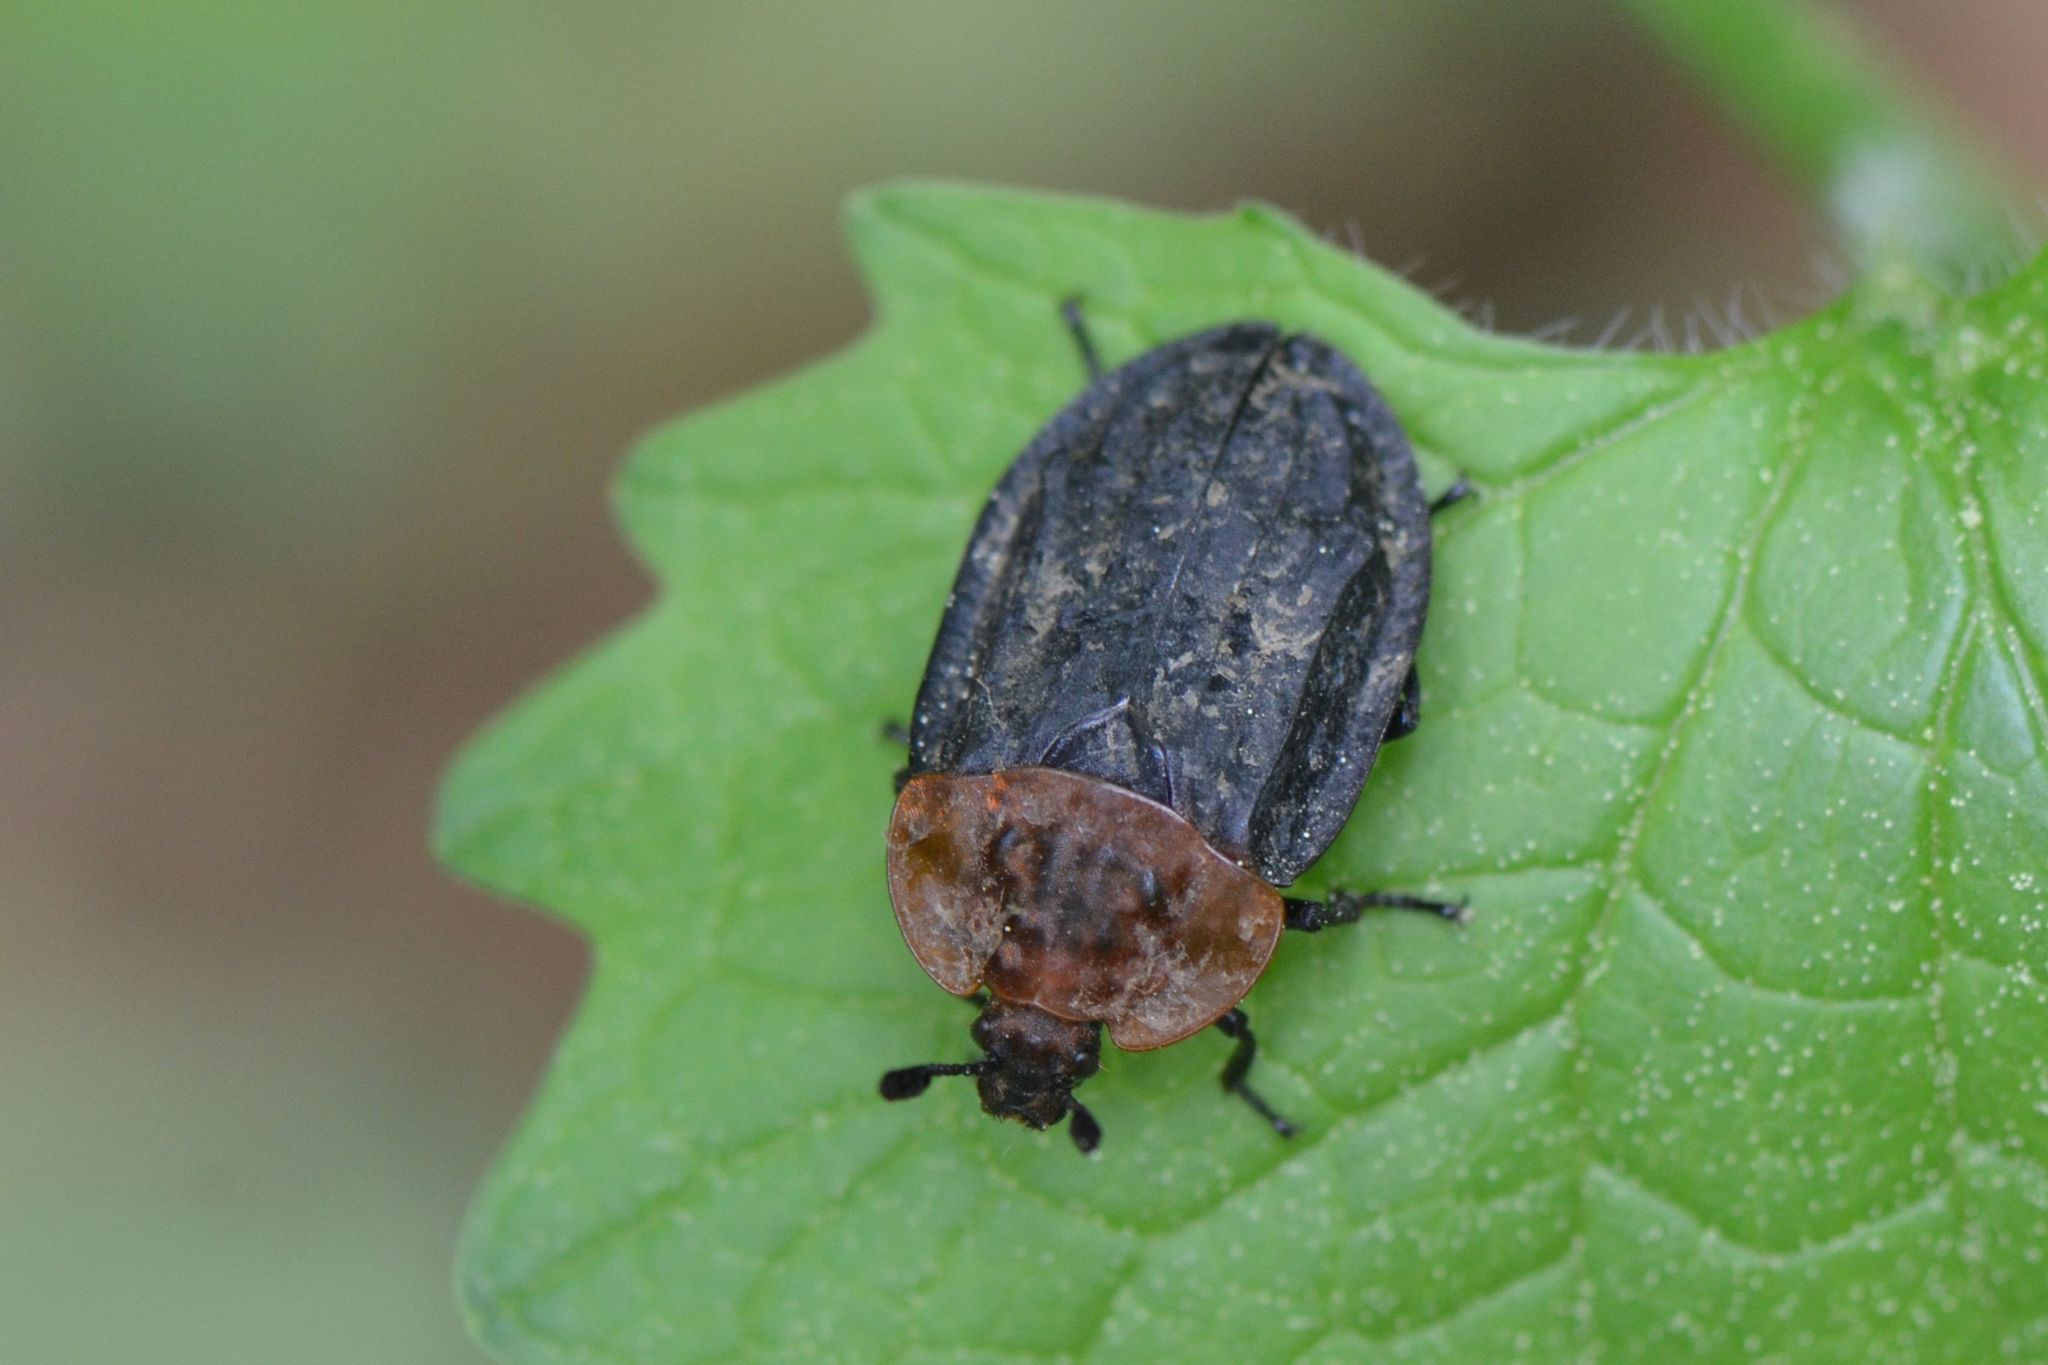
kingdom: Animalia
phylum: Arthropoda
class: Insecta
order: Coleoptera
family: Staphylinidae
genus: Oiceoptoma
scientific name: Oiceoptoma thoracicum
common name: Red-breasted carrion beetle
